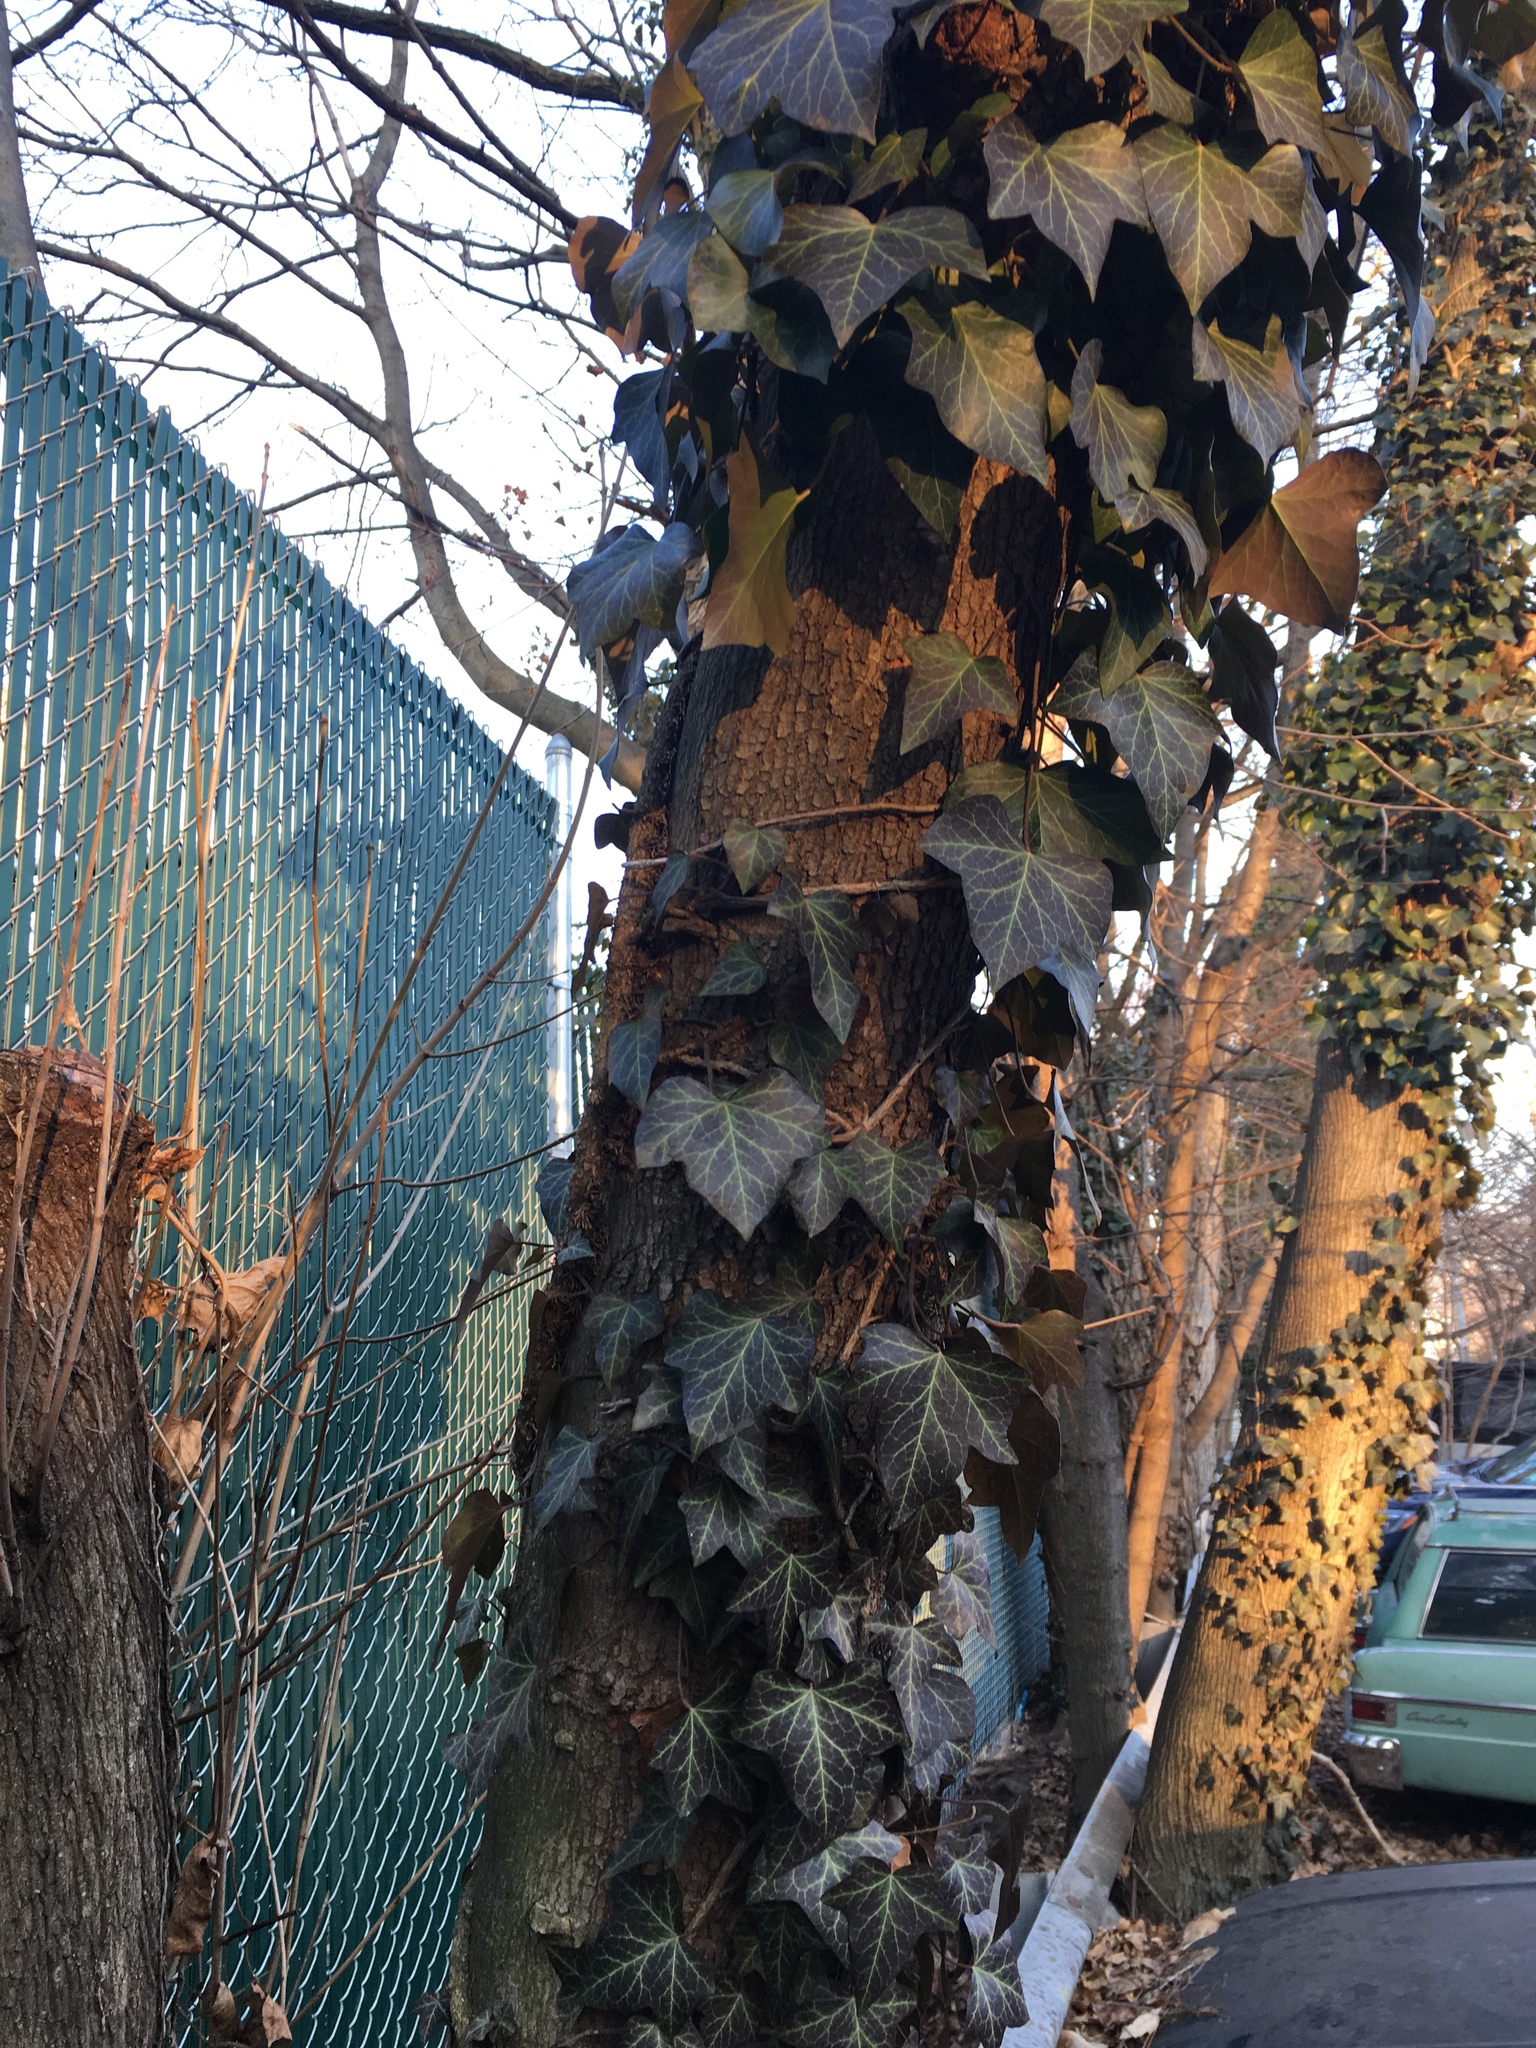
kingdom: Plantae
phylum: Tracheophyta
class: Magnoliopsida
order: Apiales
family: Araliaceae
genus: Hedera
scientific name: Hedera helix
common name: Ivy
